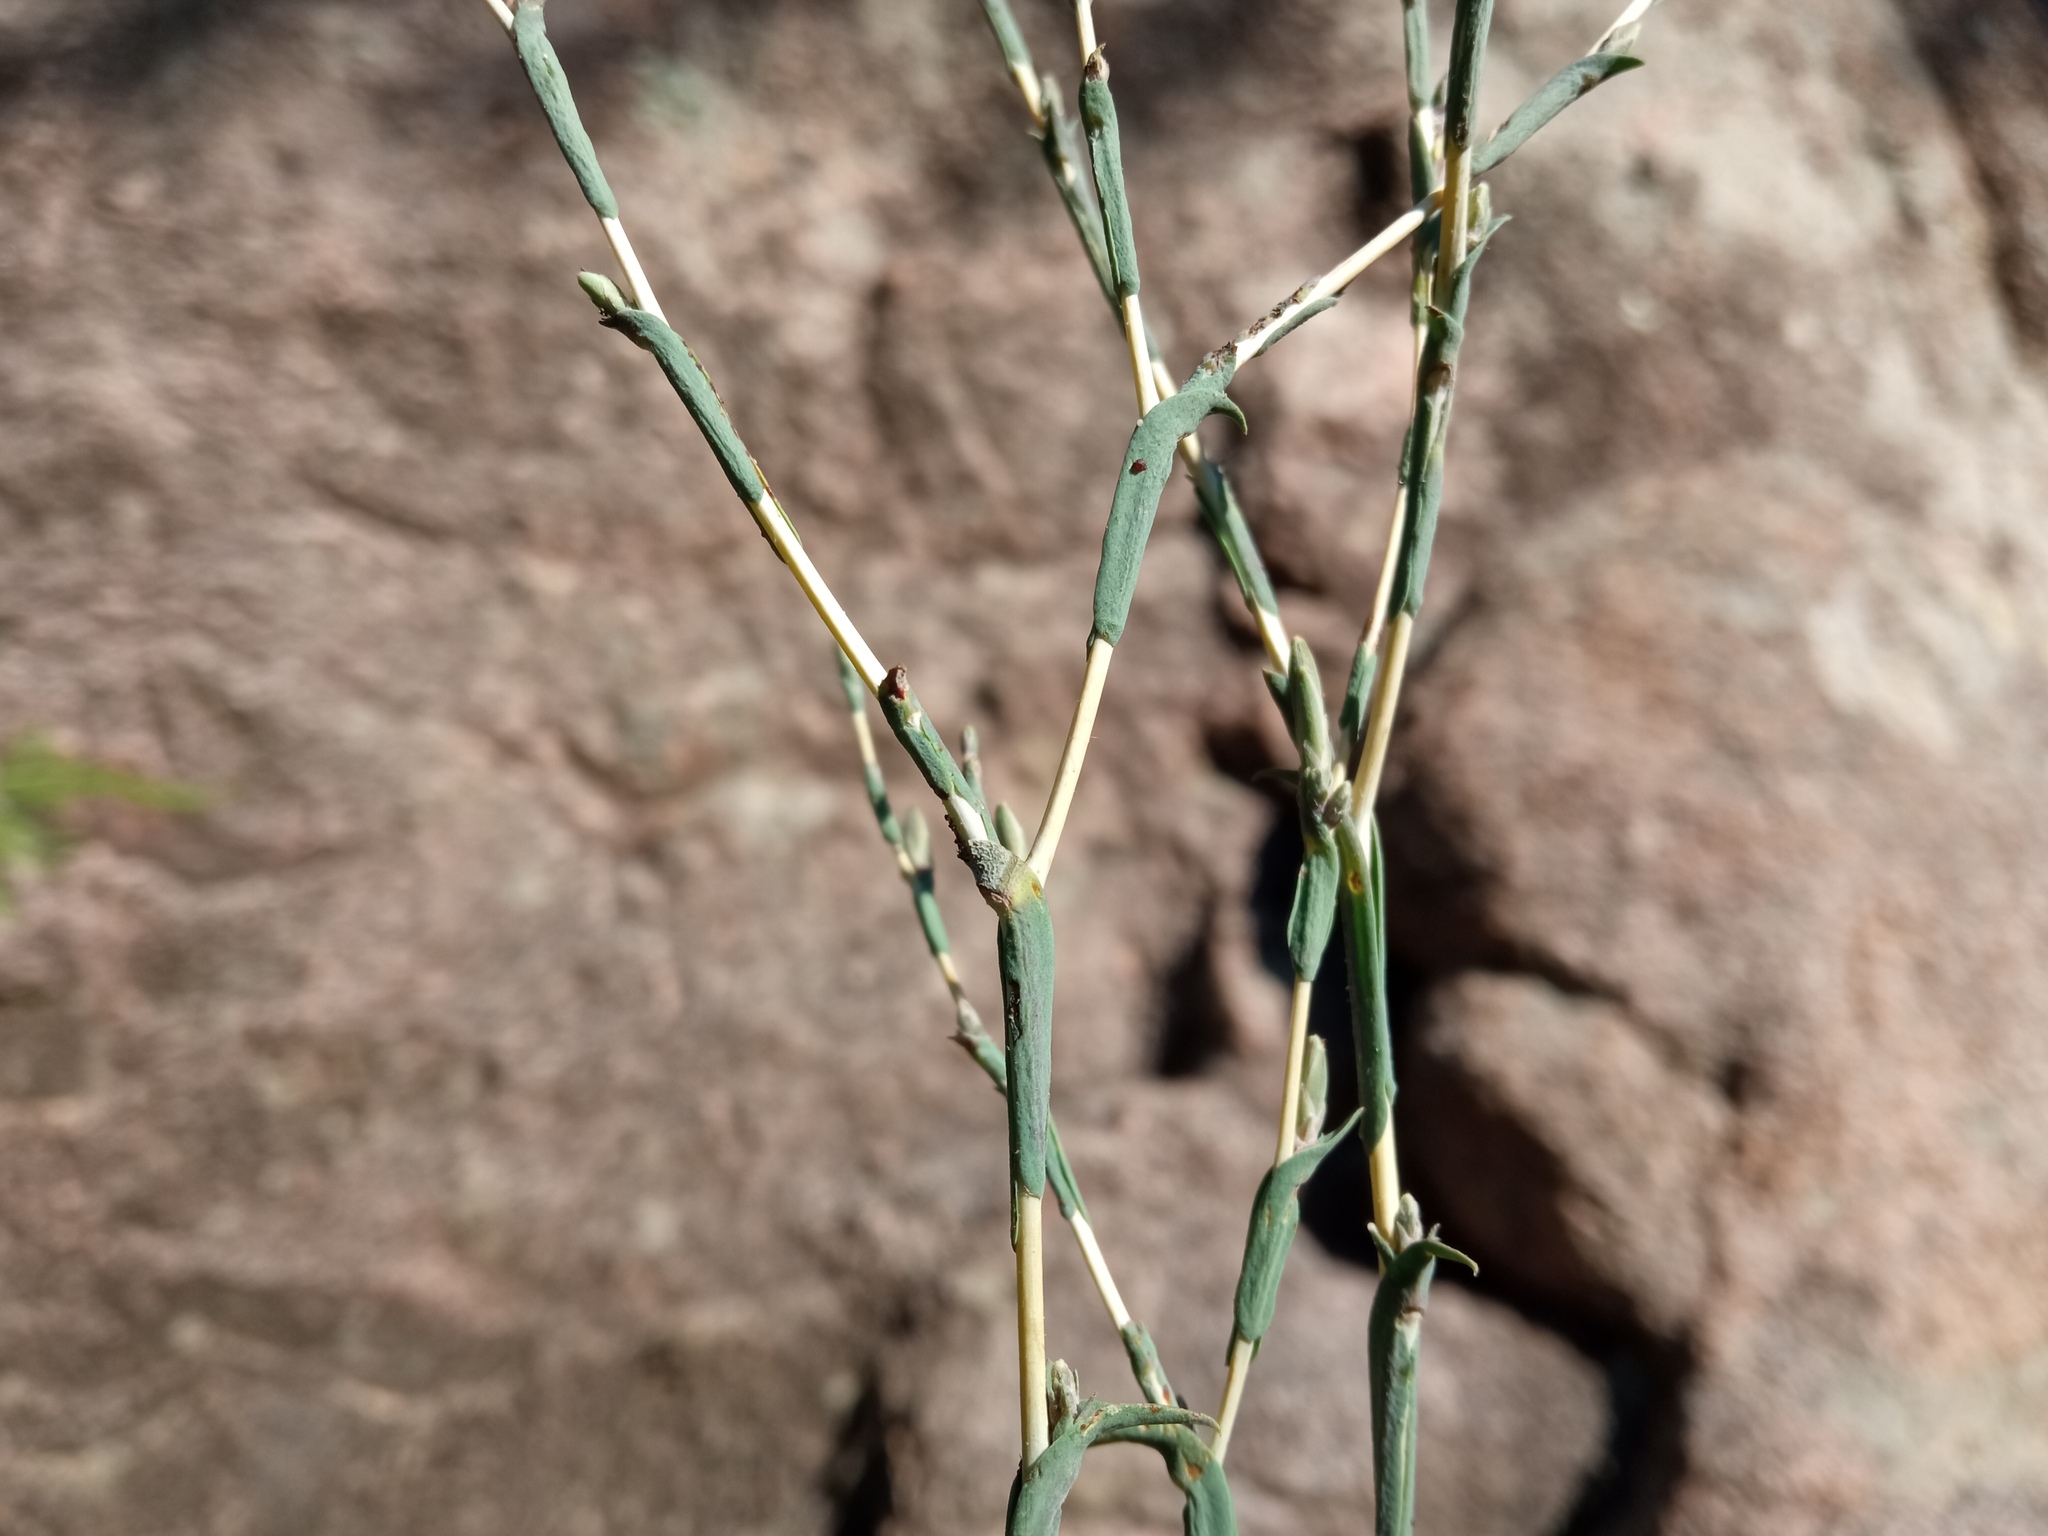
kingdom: Plantae
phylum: Tracheophyta
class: Magnoliopsida
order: Asterales
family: Asteraceae
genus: Lactuca
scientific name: Lactuca viminea
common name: Pliant lettuce
